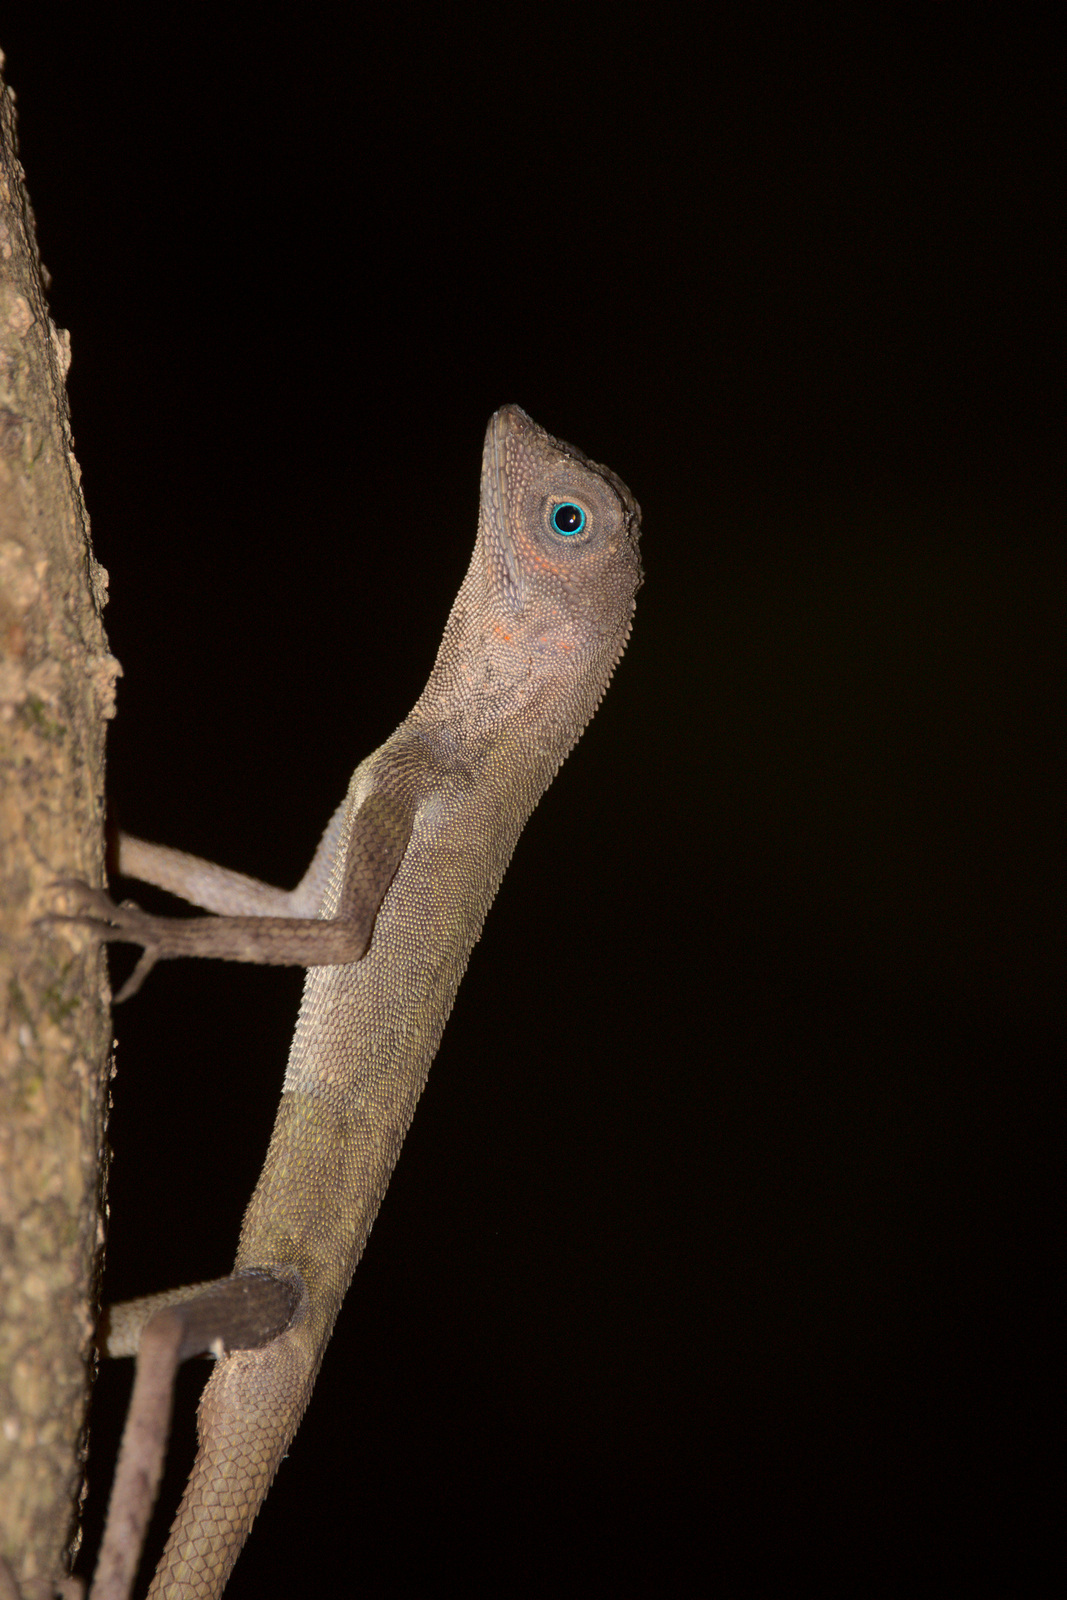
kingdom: Animalia
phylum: Chordata
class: Squamata
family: Agamidae
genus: Aphaniotis
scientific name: Aphaniotis fusca
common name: Dusky earless agama
